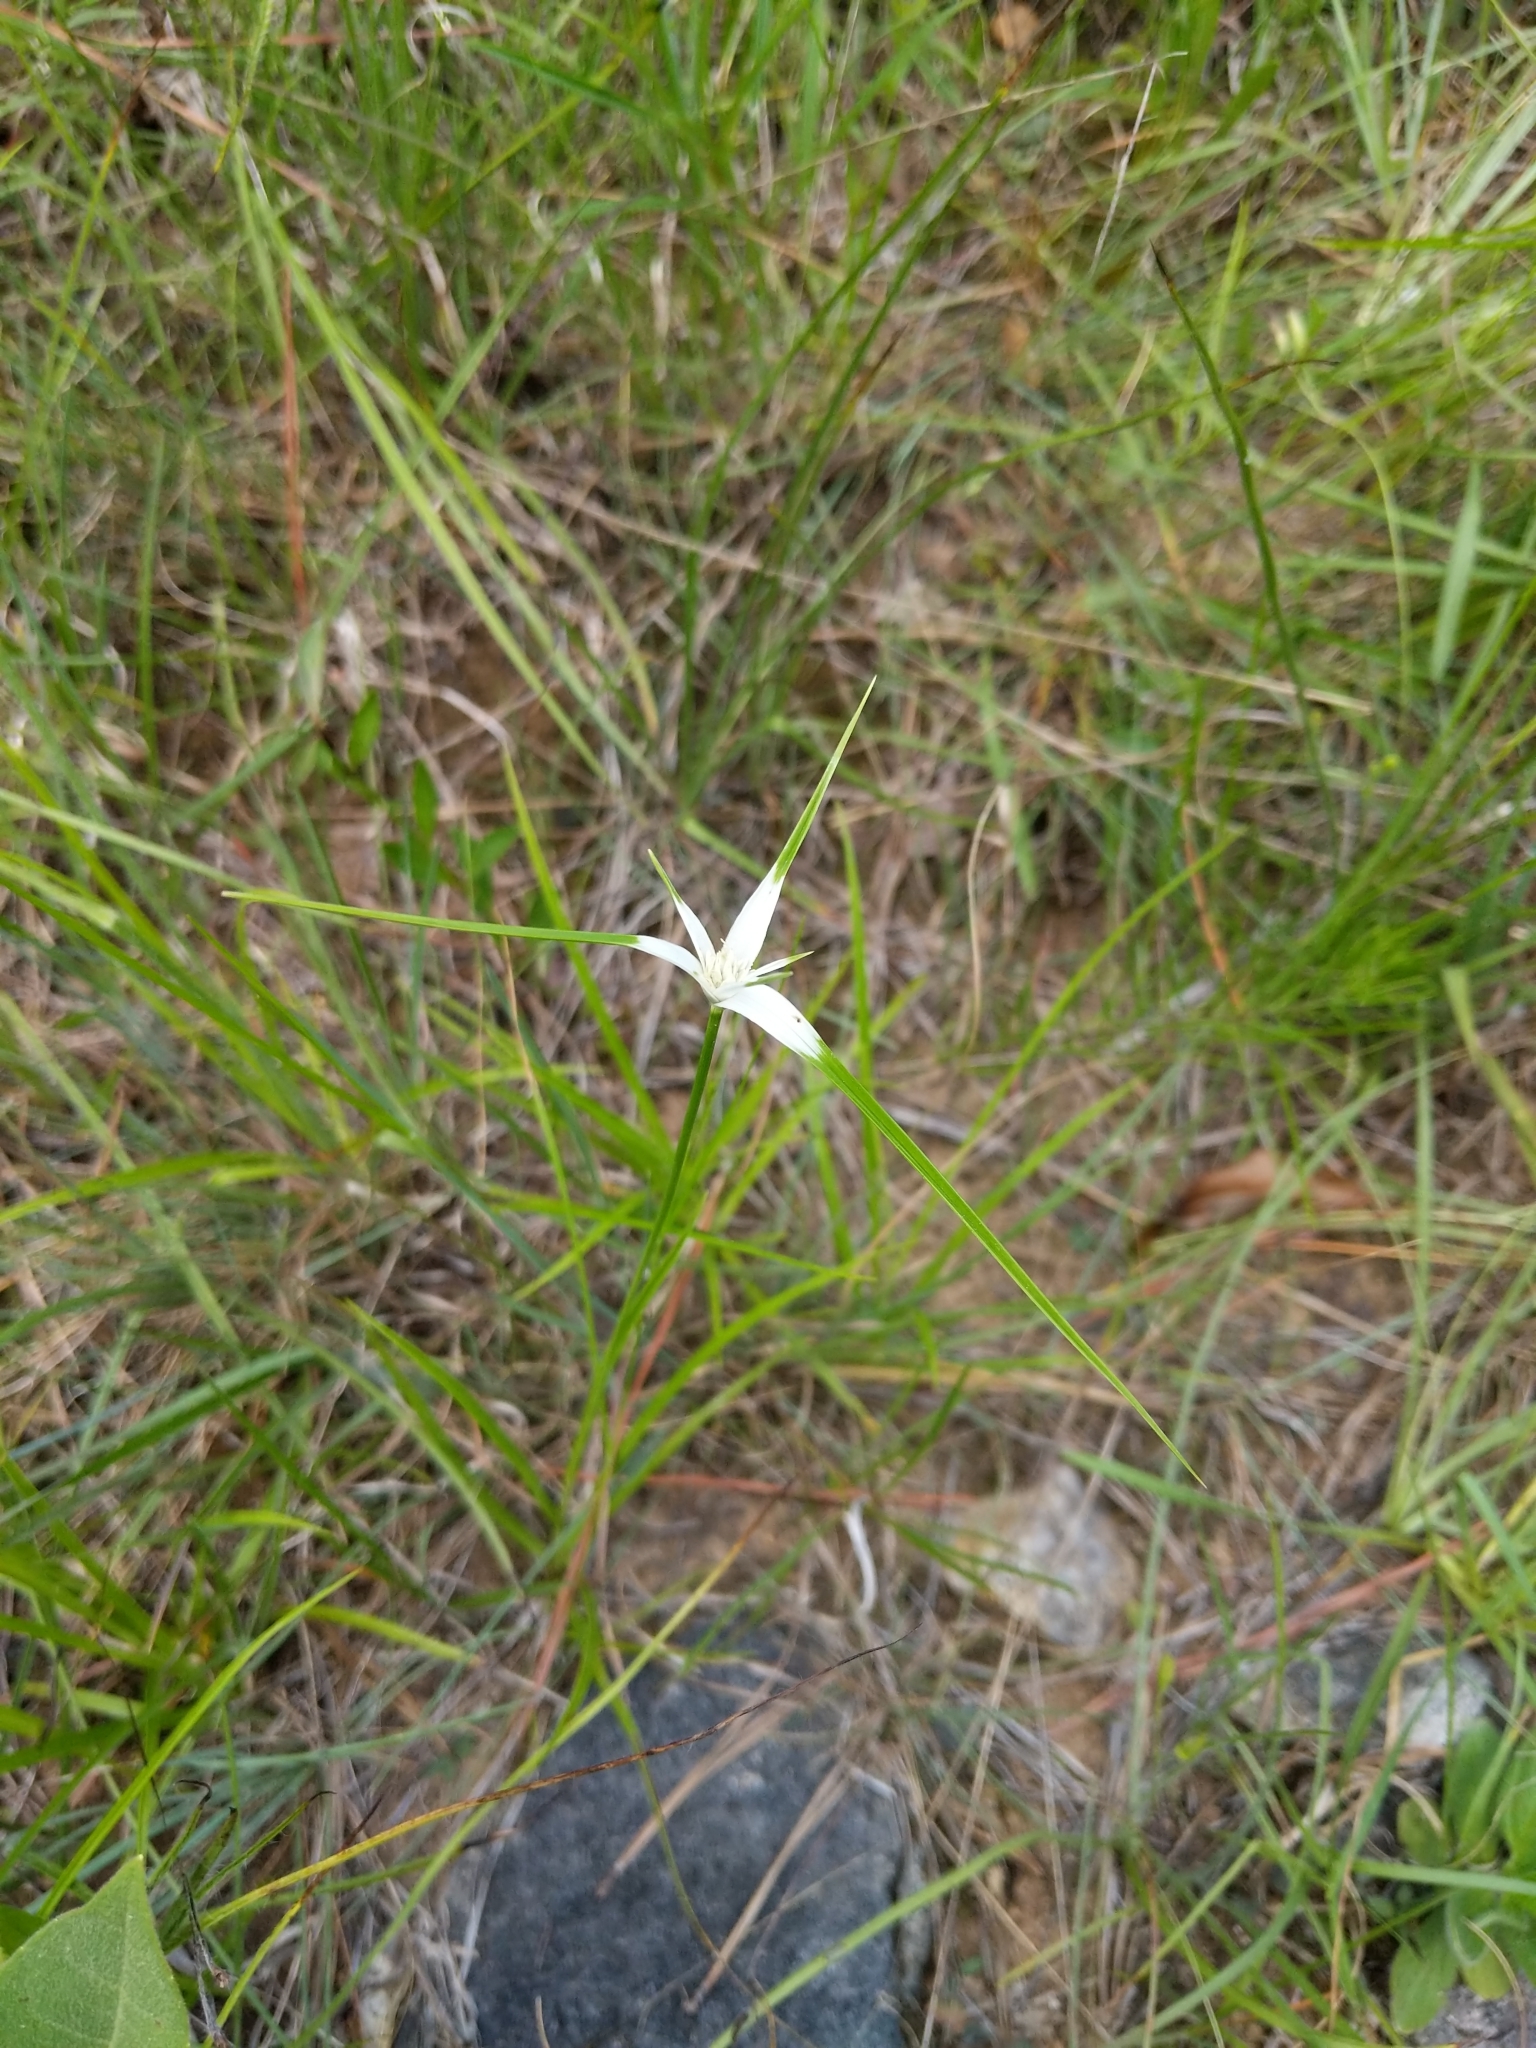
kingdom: Plantae
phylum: Tracheophyta
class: Liliopsida
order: Poales
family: Cyperaceae
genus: Rhynchospora
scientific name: Rhynchospora colorata
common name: Star sedge
